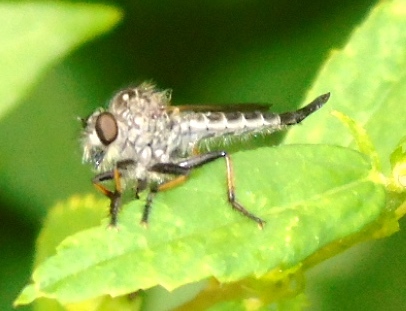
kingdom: Animalia
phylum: Arthropoda
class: Insecta
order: Diptera
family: Asilidae
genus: Efferia
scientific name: Efferia
